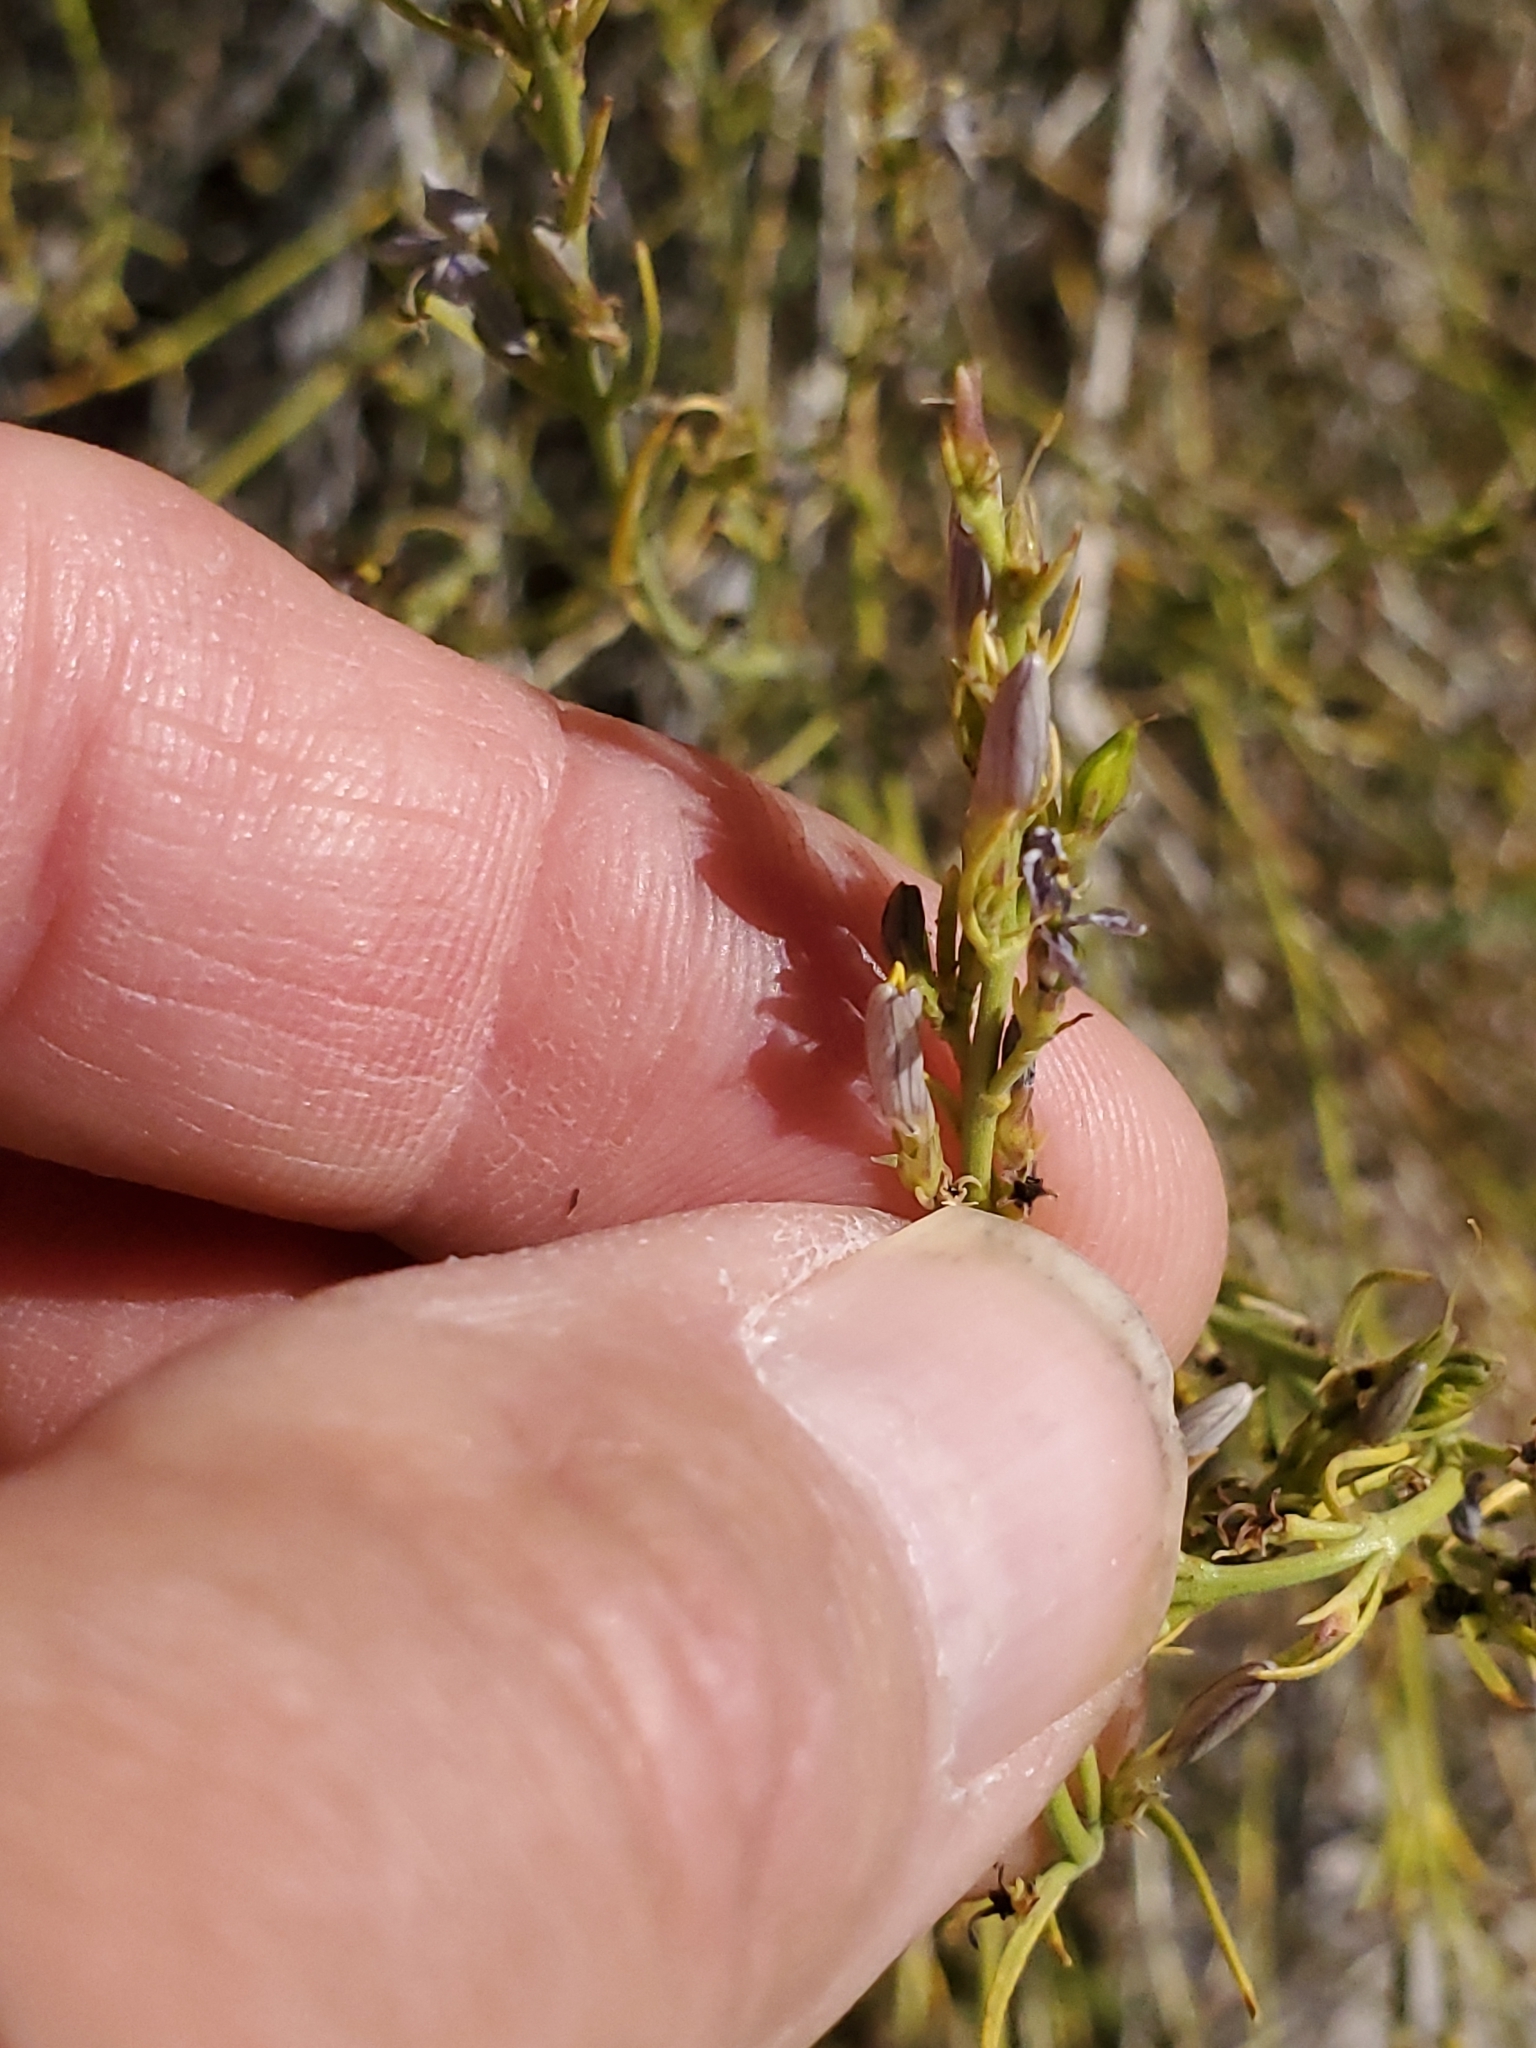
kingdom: Plantae
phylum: Tracheophyta
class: Magnoliopsida
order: Lamiales
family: Acanthaceae
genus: Carlowrightia
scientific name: Carlowrightia linearifolia
